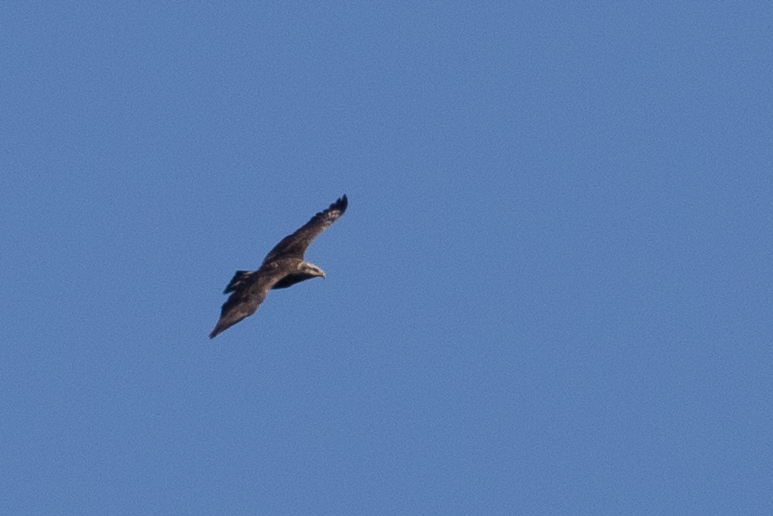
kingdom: Animalia
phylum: Chordata
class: Aves
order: Accipitriformes
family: Accipitridae
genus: Haliaeetus
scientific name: Haliaeetus leucocephalus
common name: Bald eagle
